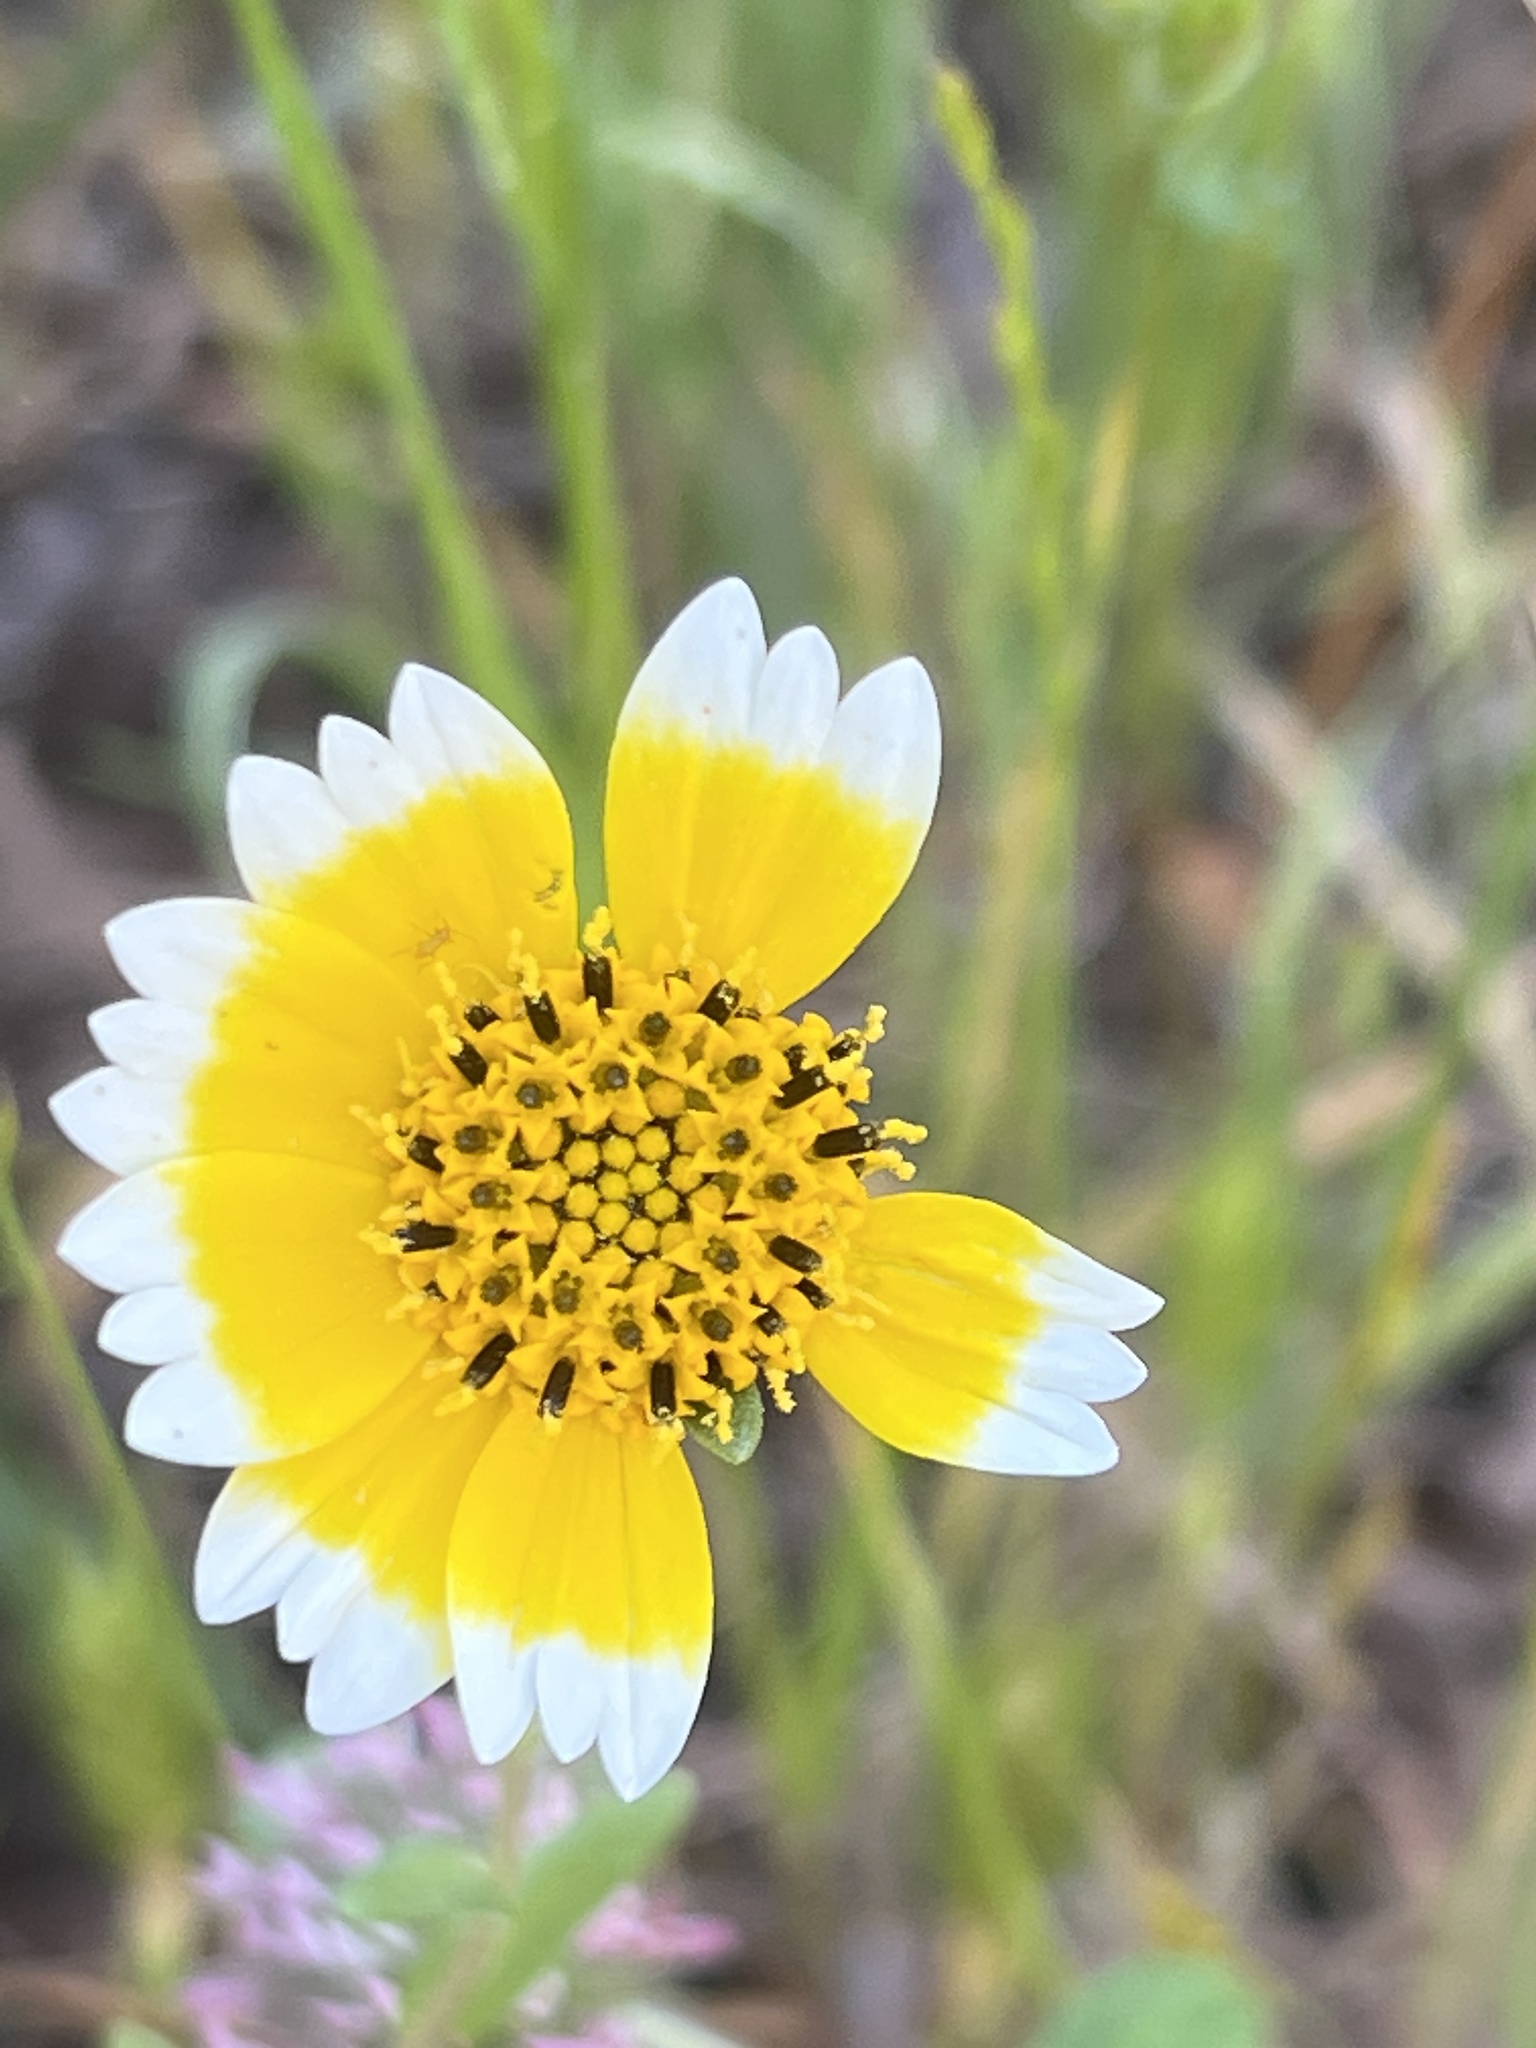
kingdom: Plantae
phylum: Tracheophyta
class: Magnoliopsida
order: Asterales
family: Asteraceae
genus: Layia
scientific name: Layia platyglossa
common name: Tidy-tips
